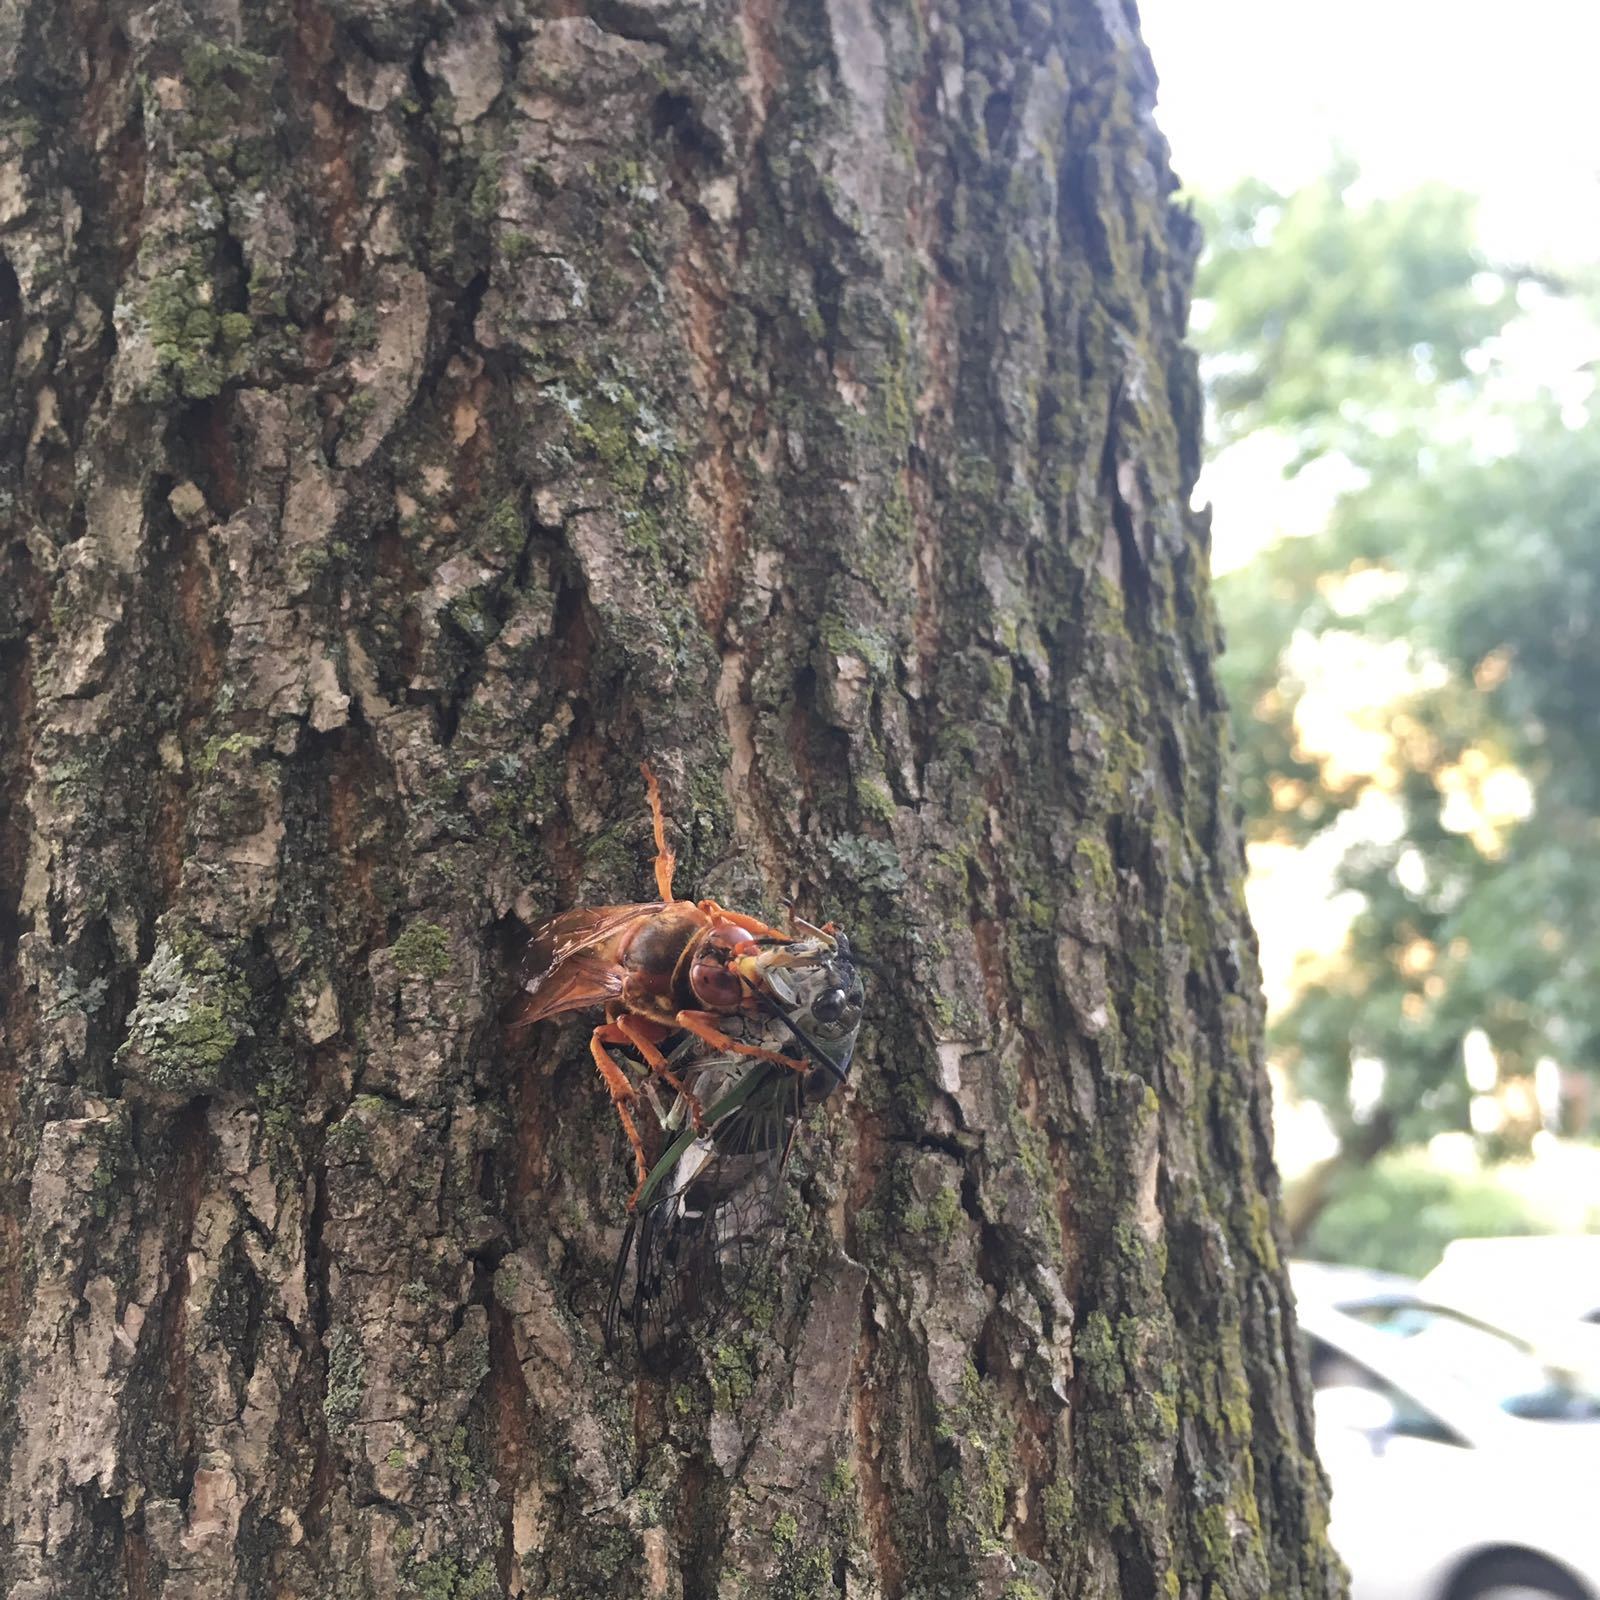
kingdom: Animalia
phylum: Arthropoda
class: Insecta
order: Hymenoptera
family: Crabronidae
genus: Sphecius
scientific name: Sphecius speciosus
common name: Cicada killer
